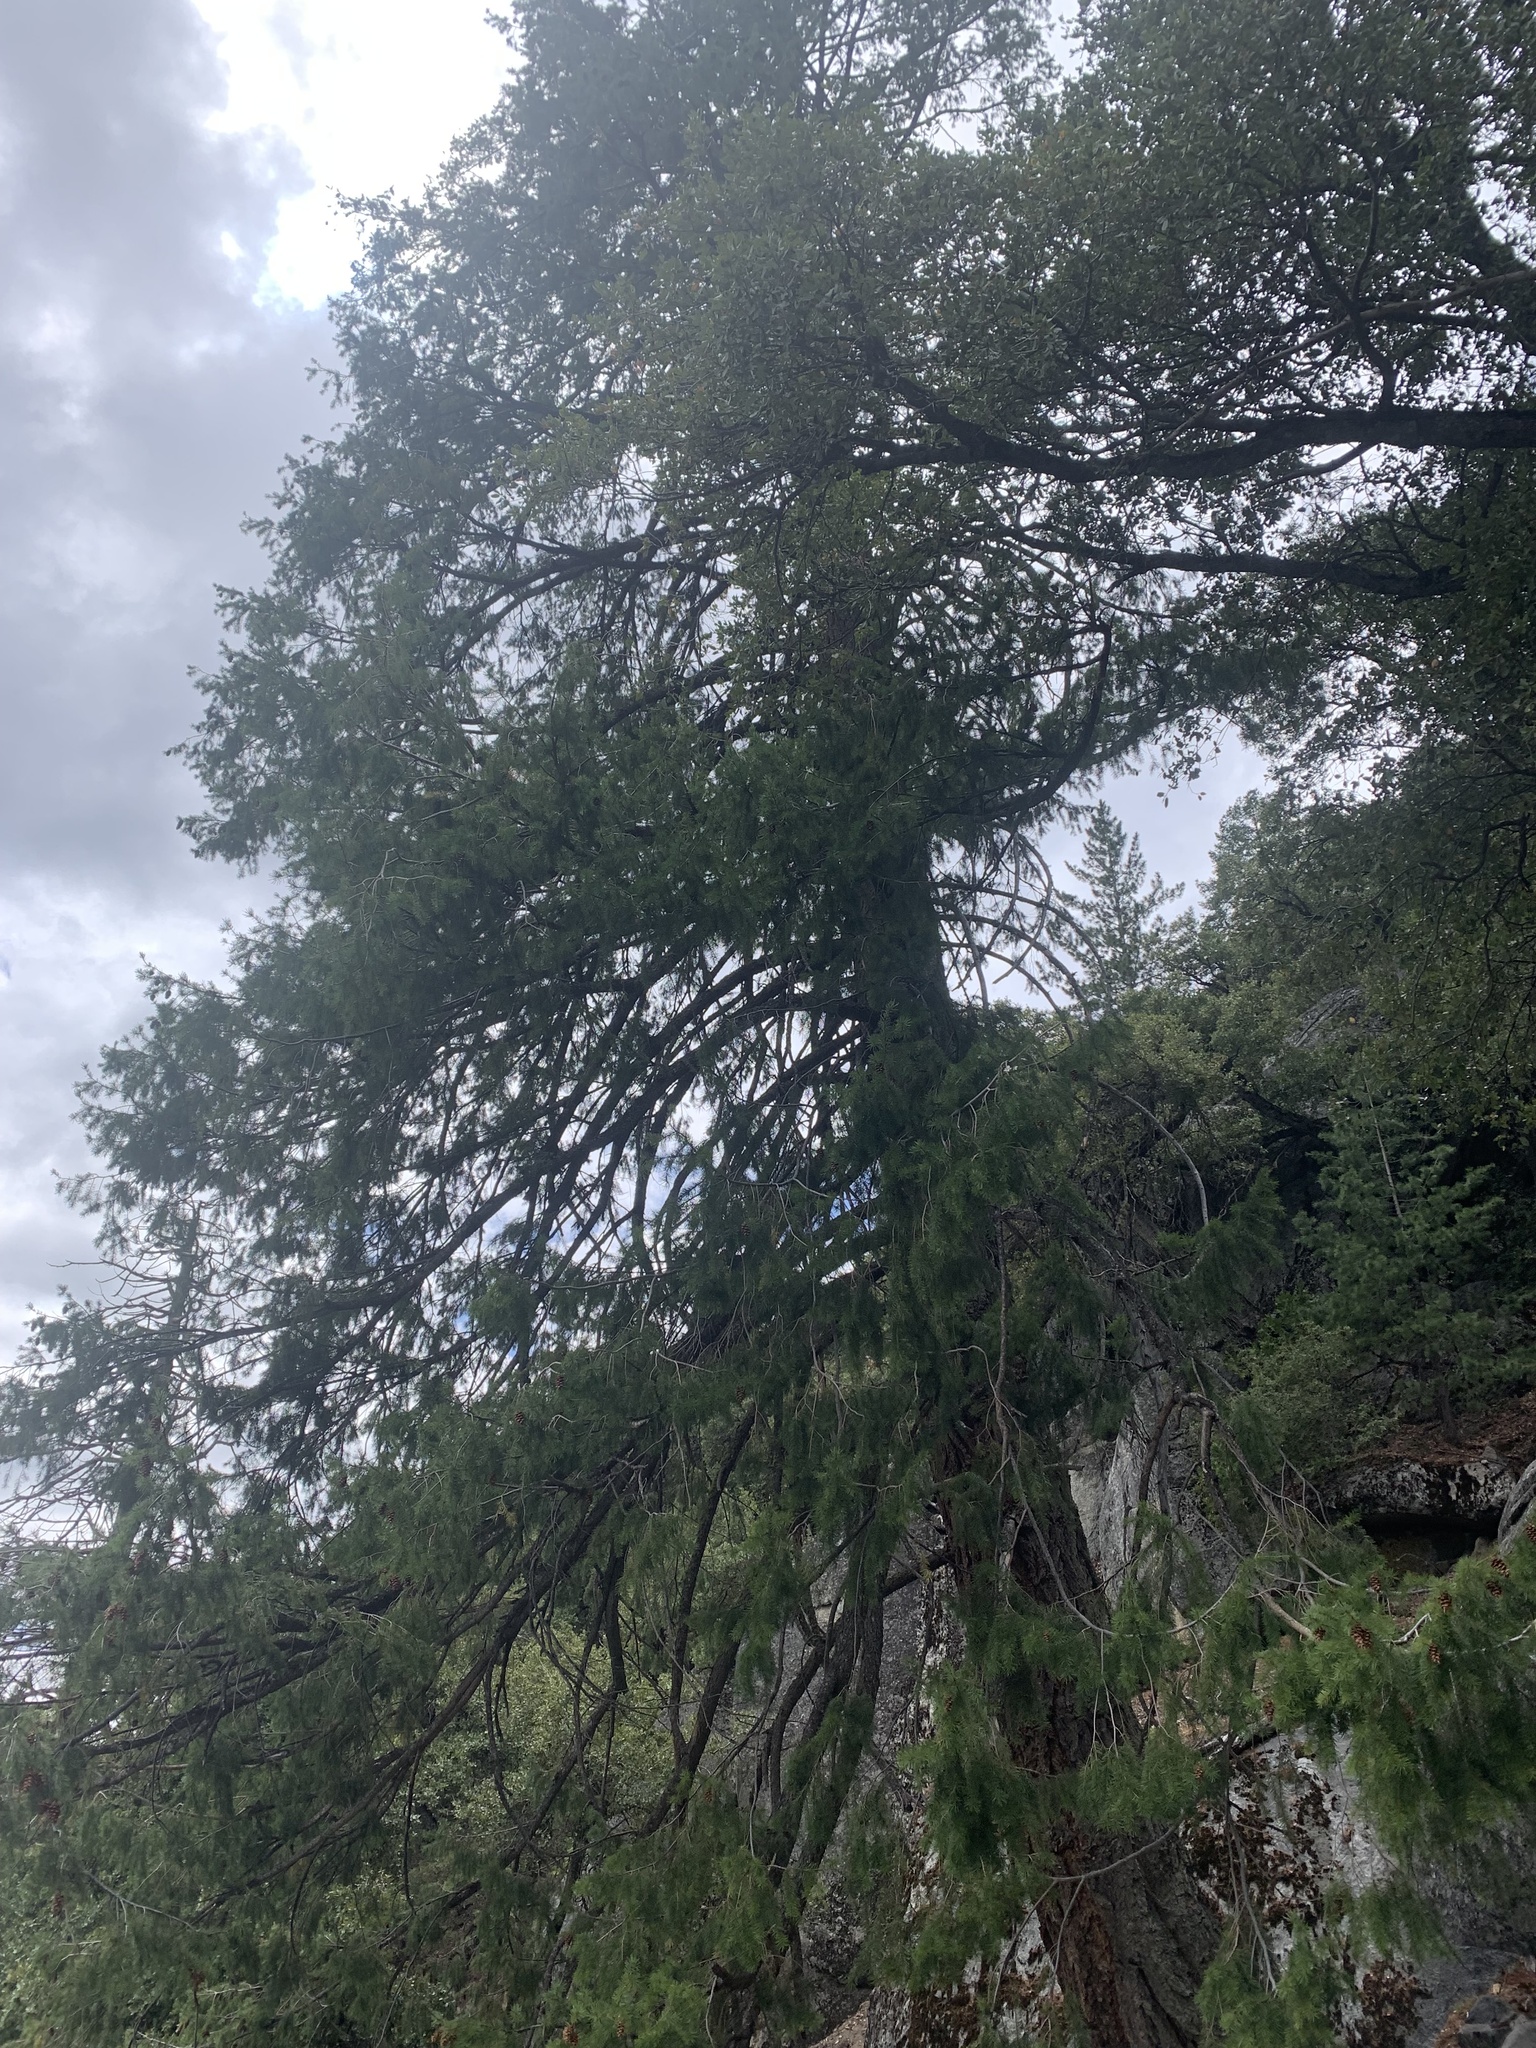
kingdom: Plantae
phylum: Tracheophyta
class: Pinopsida
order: Pinales
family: Pinaceae
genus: Pseudotsuga
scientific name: Pseudotsuga menziesii
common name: Douglas fir
